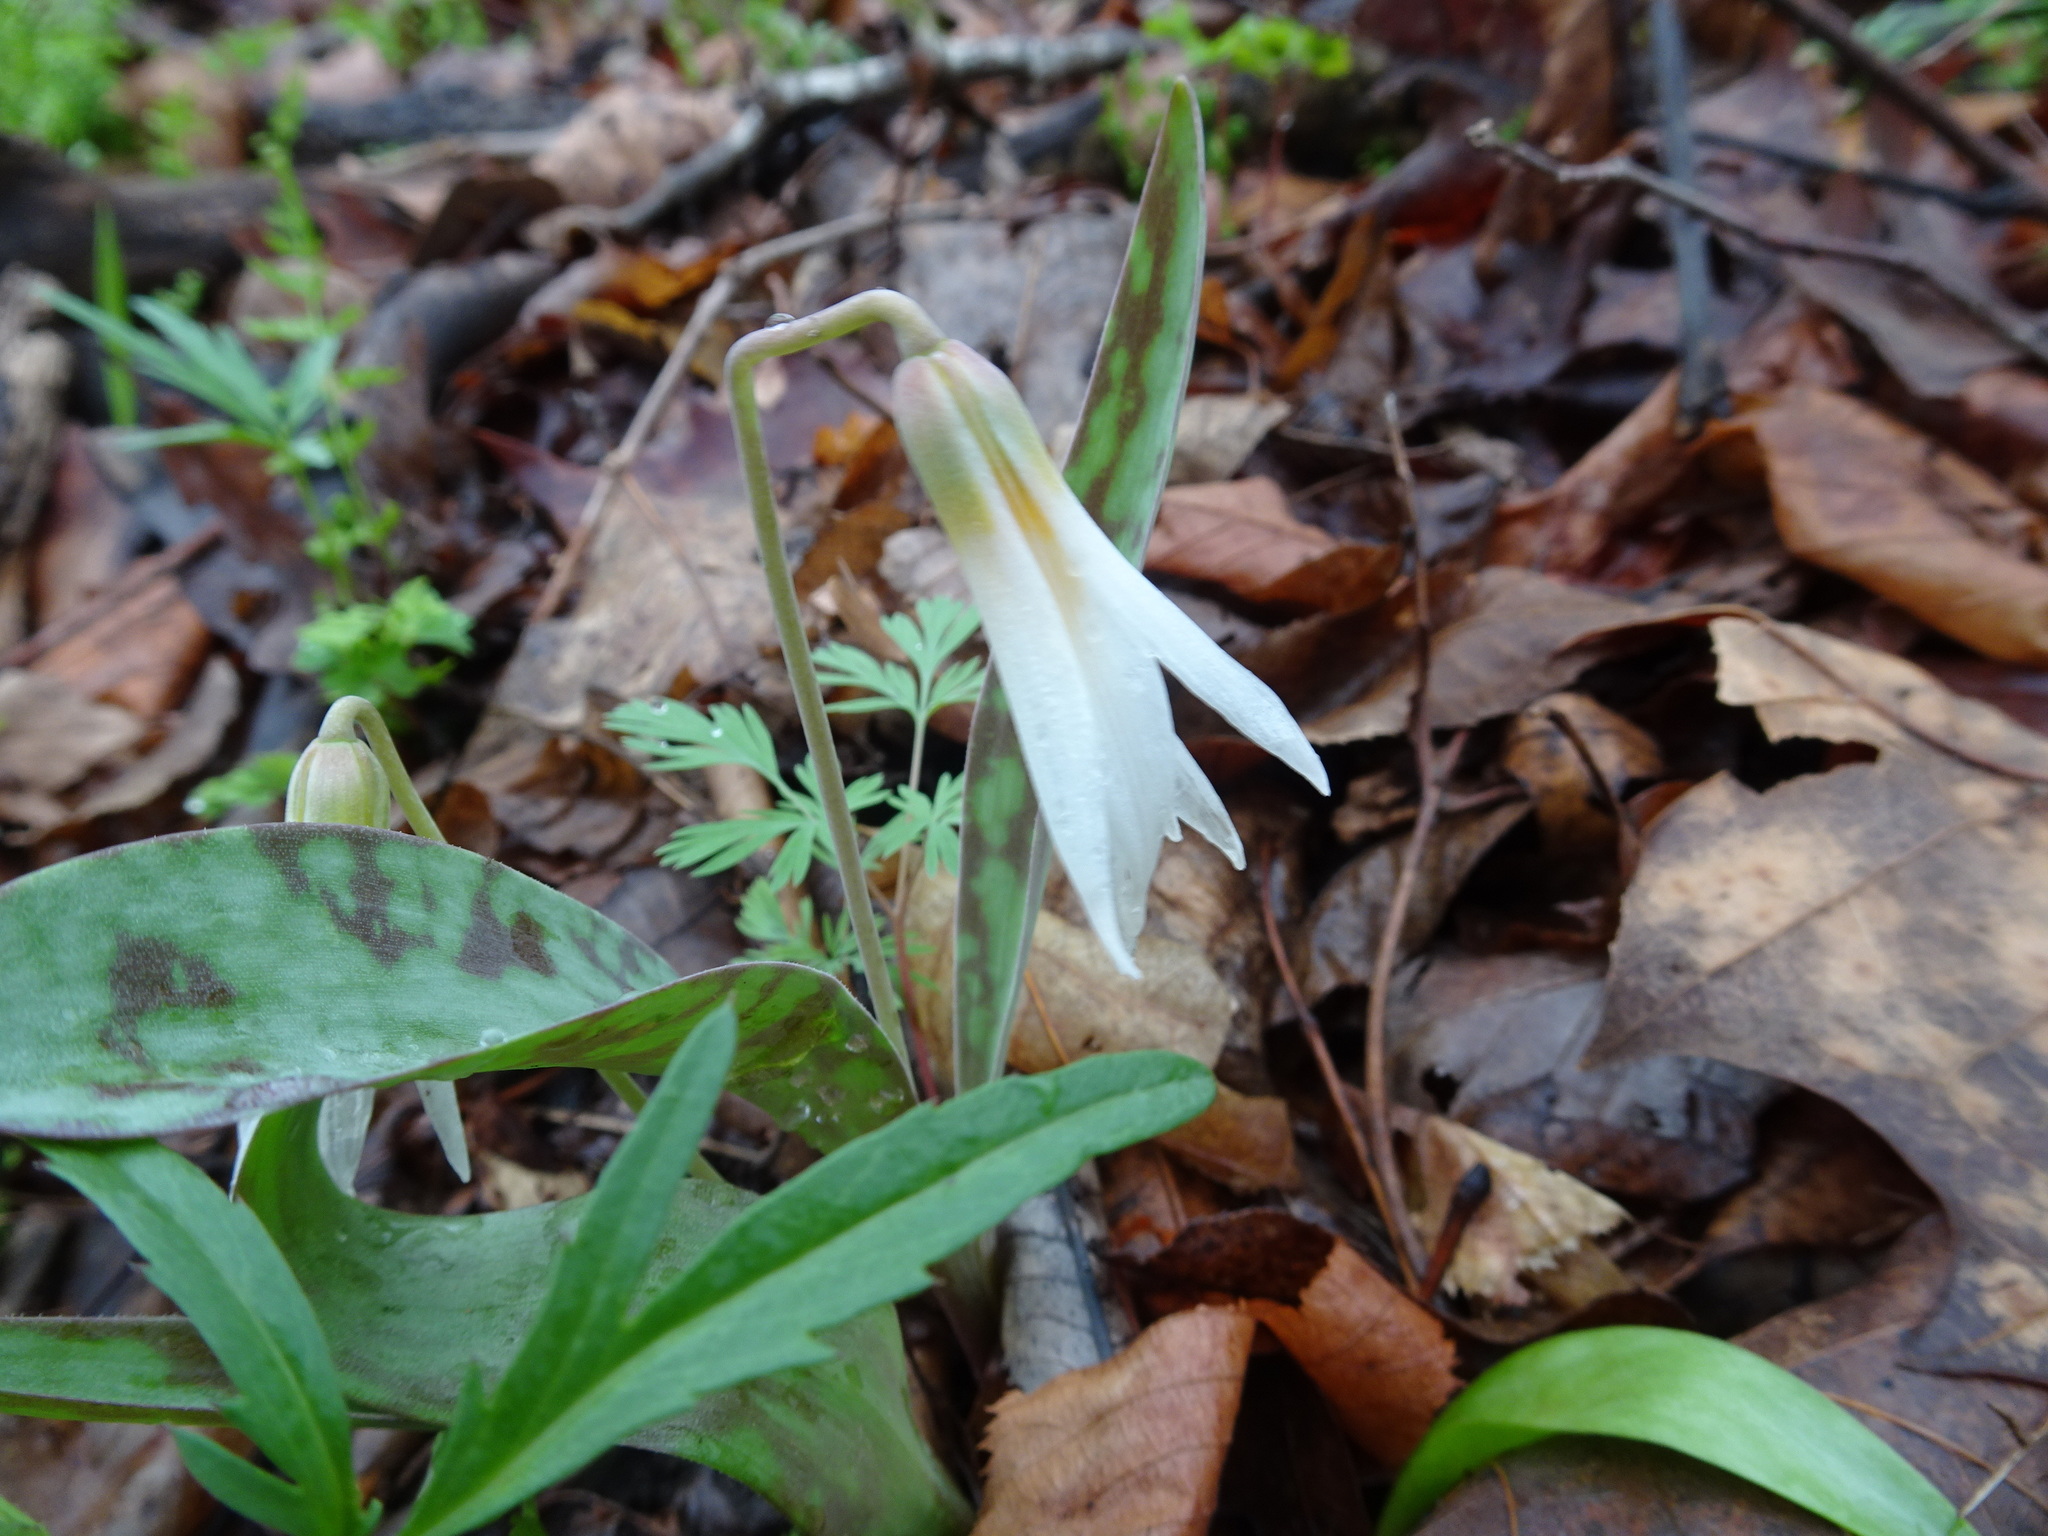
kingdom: Plantae
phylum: Tracheophyta
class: Liliopsida
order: Liliales
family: Liliaceae
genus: Erythronium
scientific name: Erythronium albidum
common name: White trout-lily
